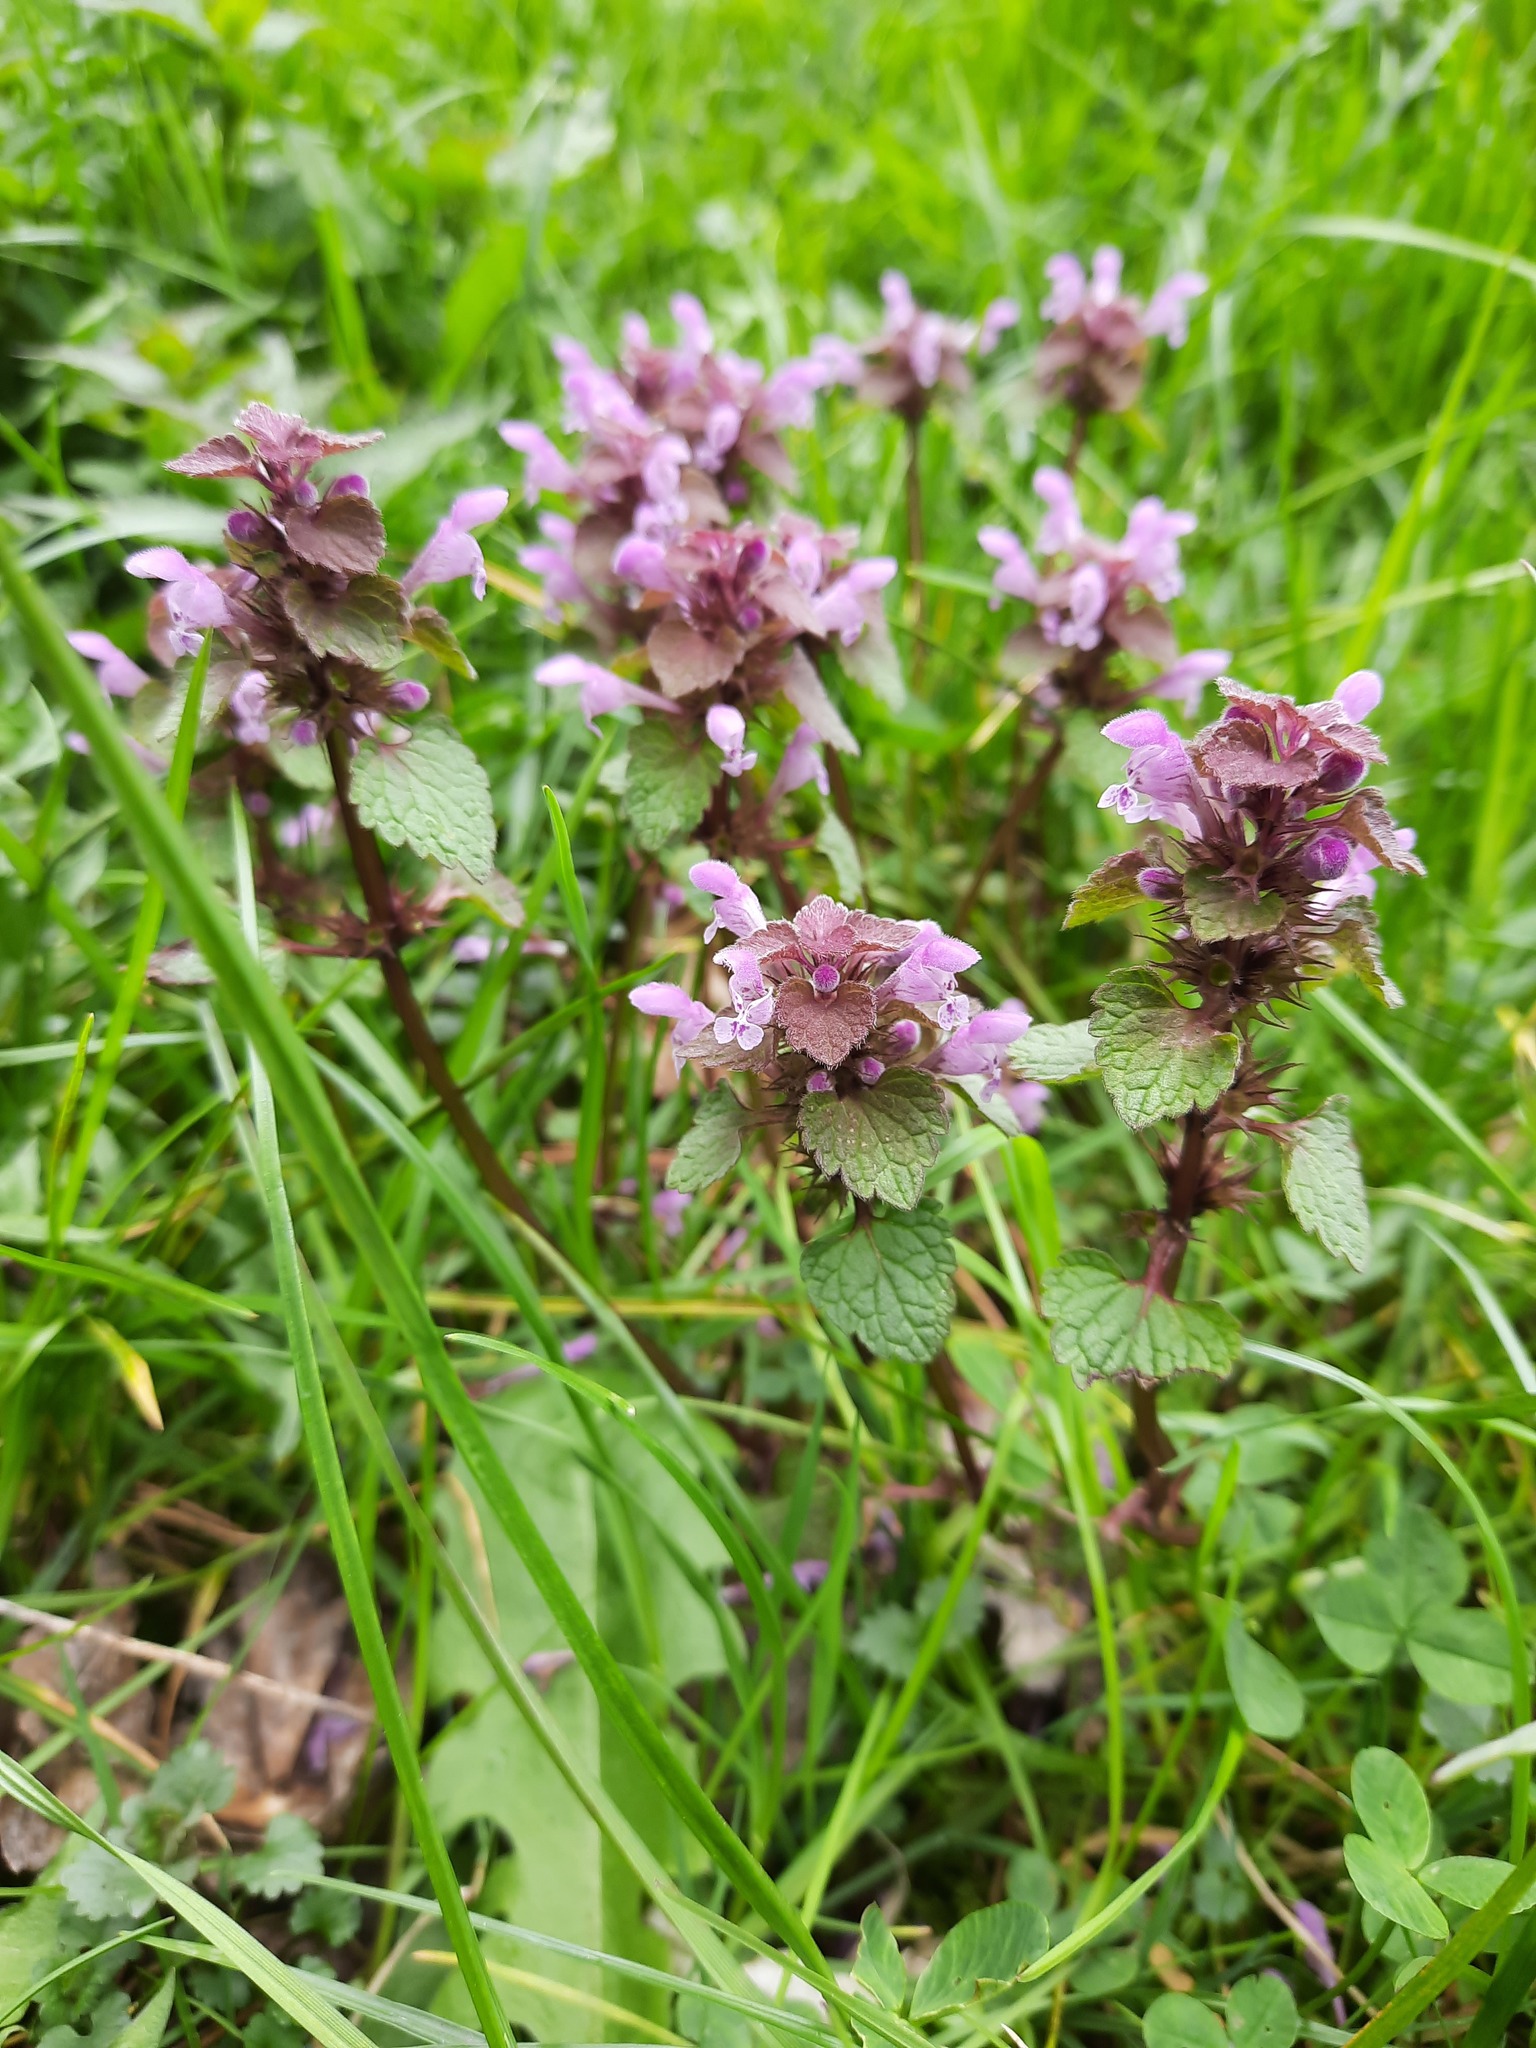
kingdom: Plantae
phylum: Tracheophyta
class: Magnoliopsida
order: Lamiales
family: Lamiaceae
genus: Lamium
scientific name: Lamium purpureum
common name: Red dead-nettle
